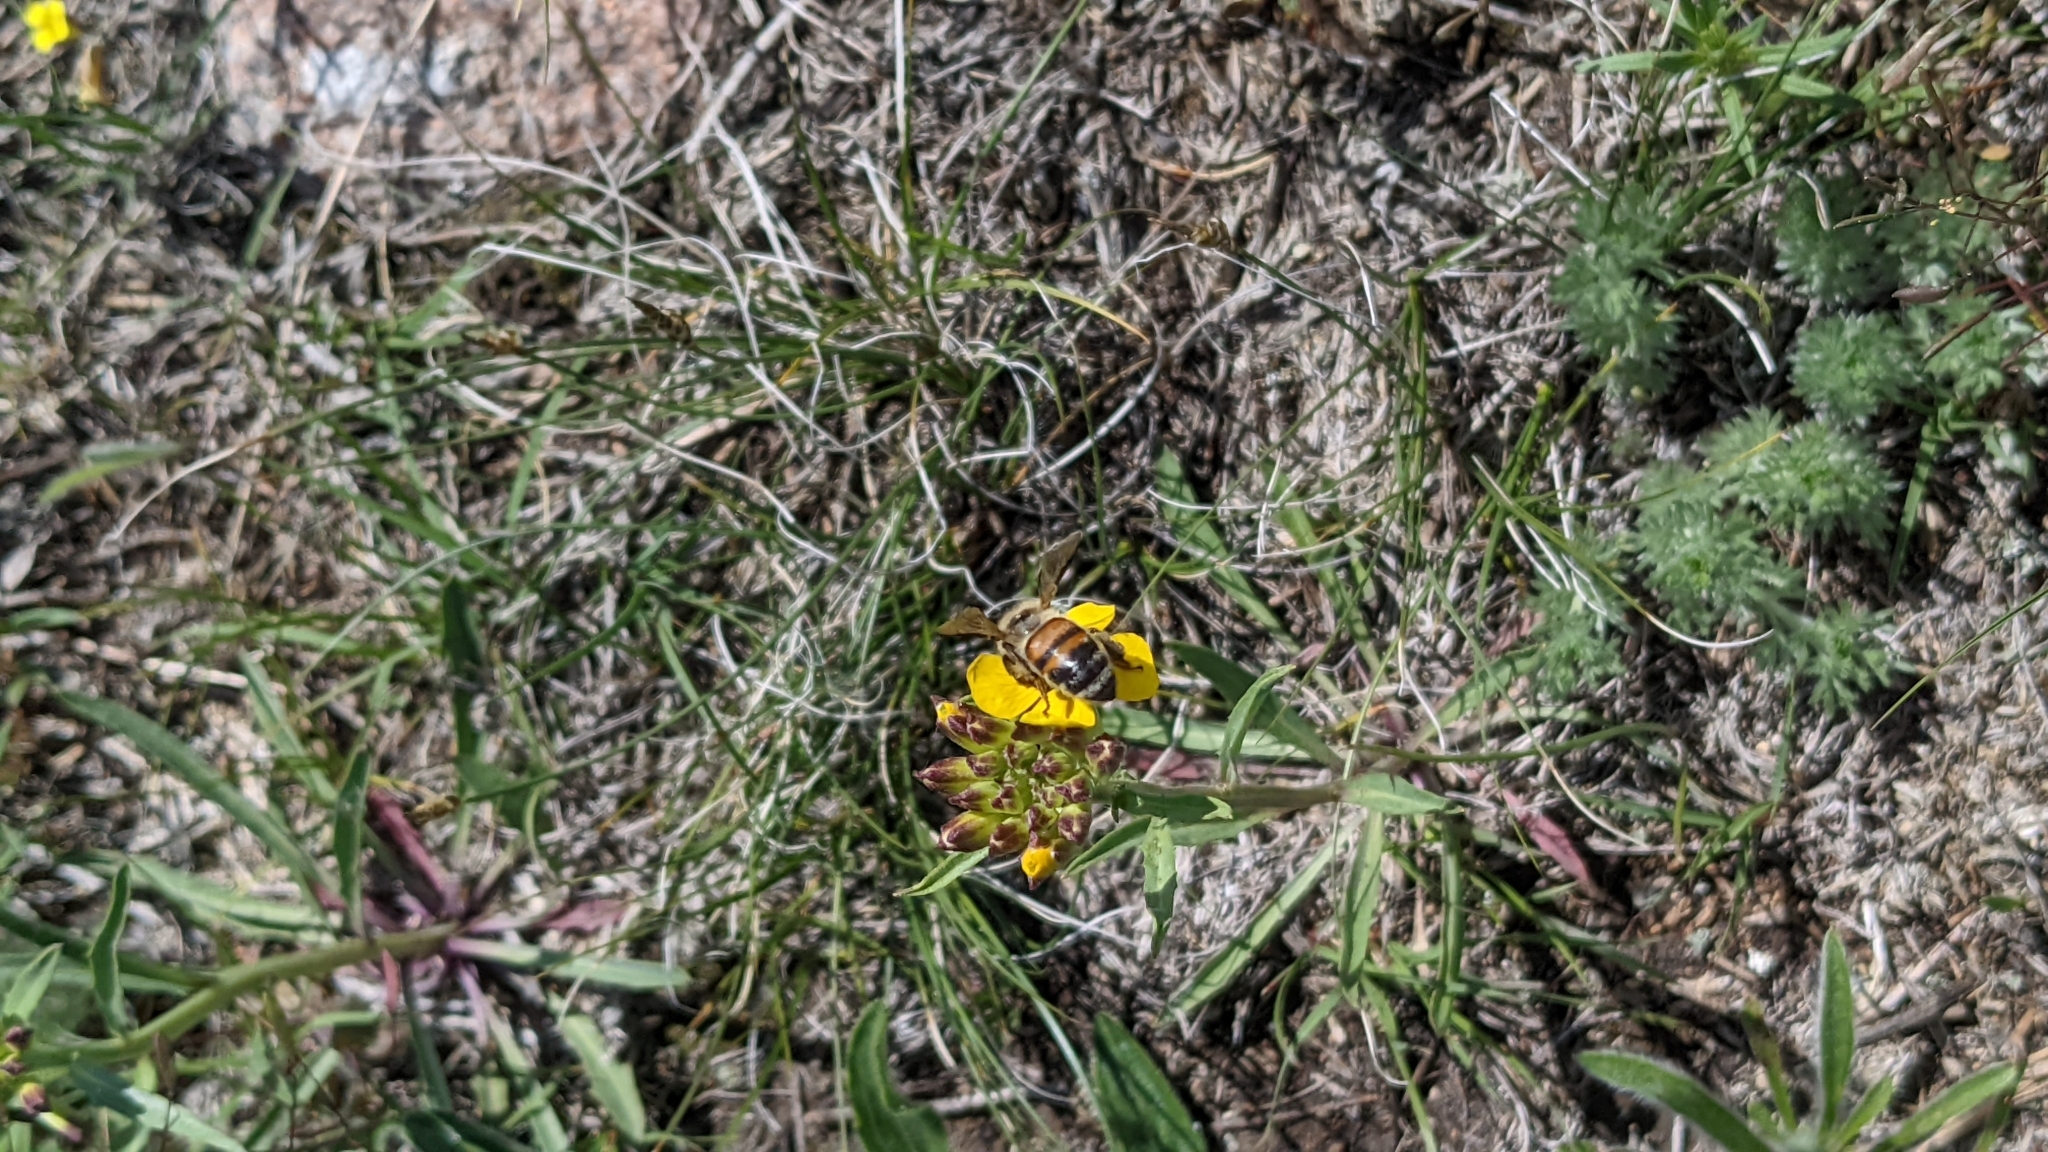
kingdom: Animalia
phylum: Arthropoda
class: Insecta
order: Hymenoptera
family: Apidae
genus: Apis
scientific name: Apis mellifera
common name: Honey bee
